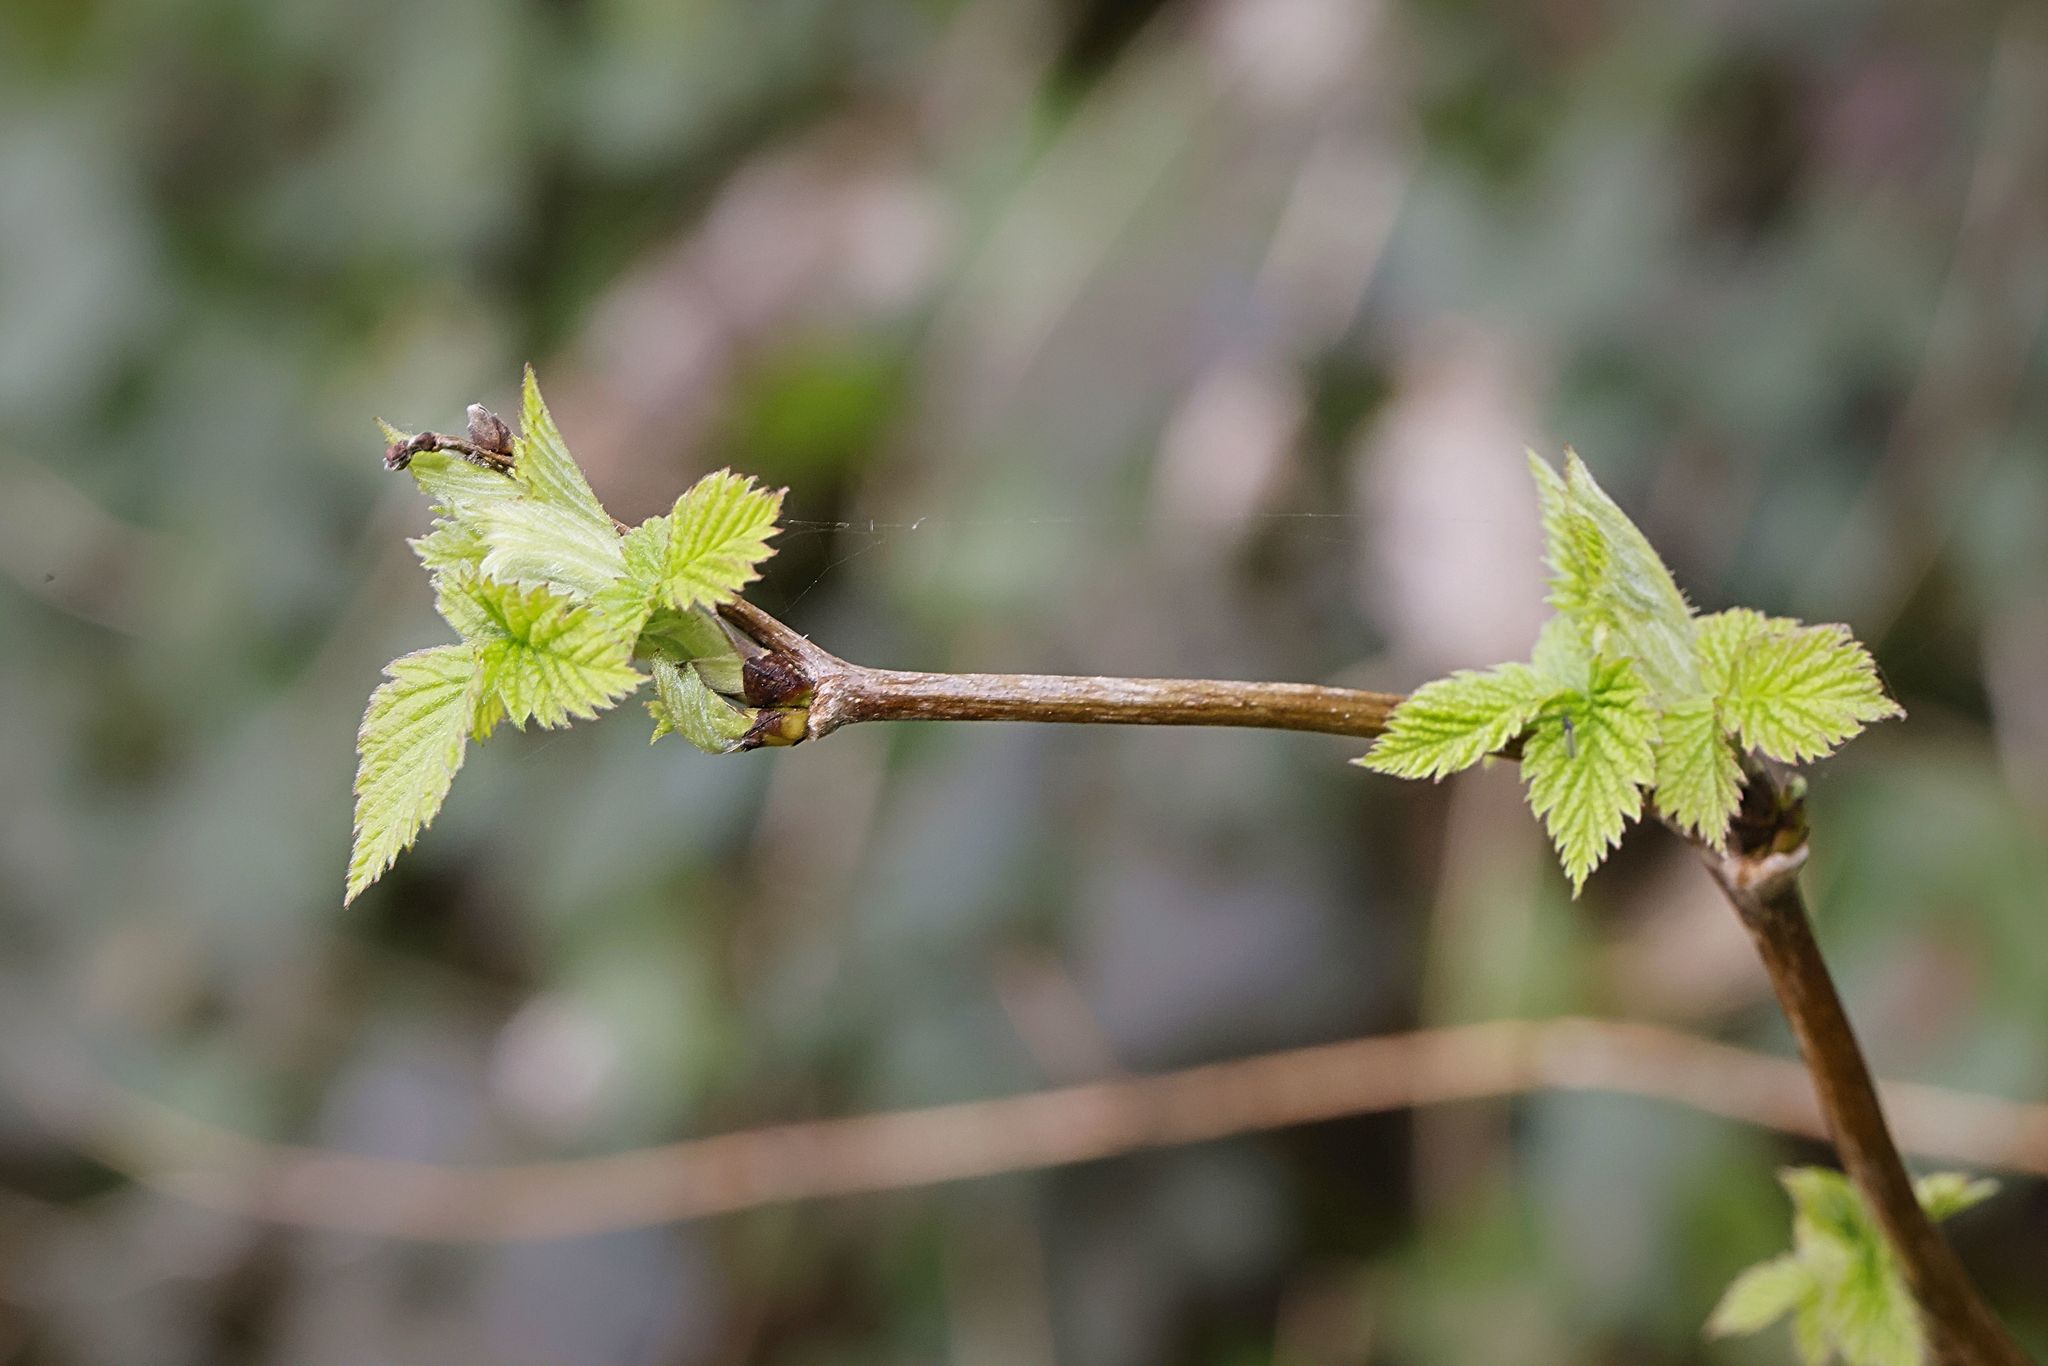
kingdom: Plantae
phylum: Tracheophyta
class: Magnoliopsida
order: Rosales
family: Rosaceae
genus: Rubus
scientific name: Rubus idaeus
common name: Raspberry
